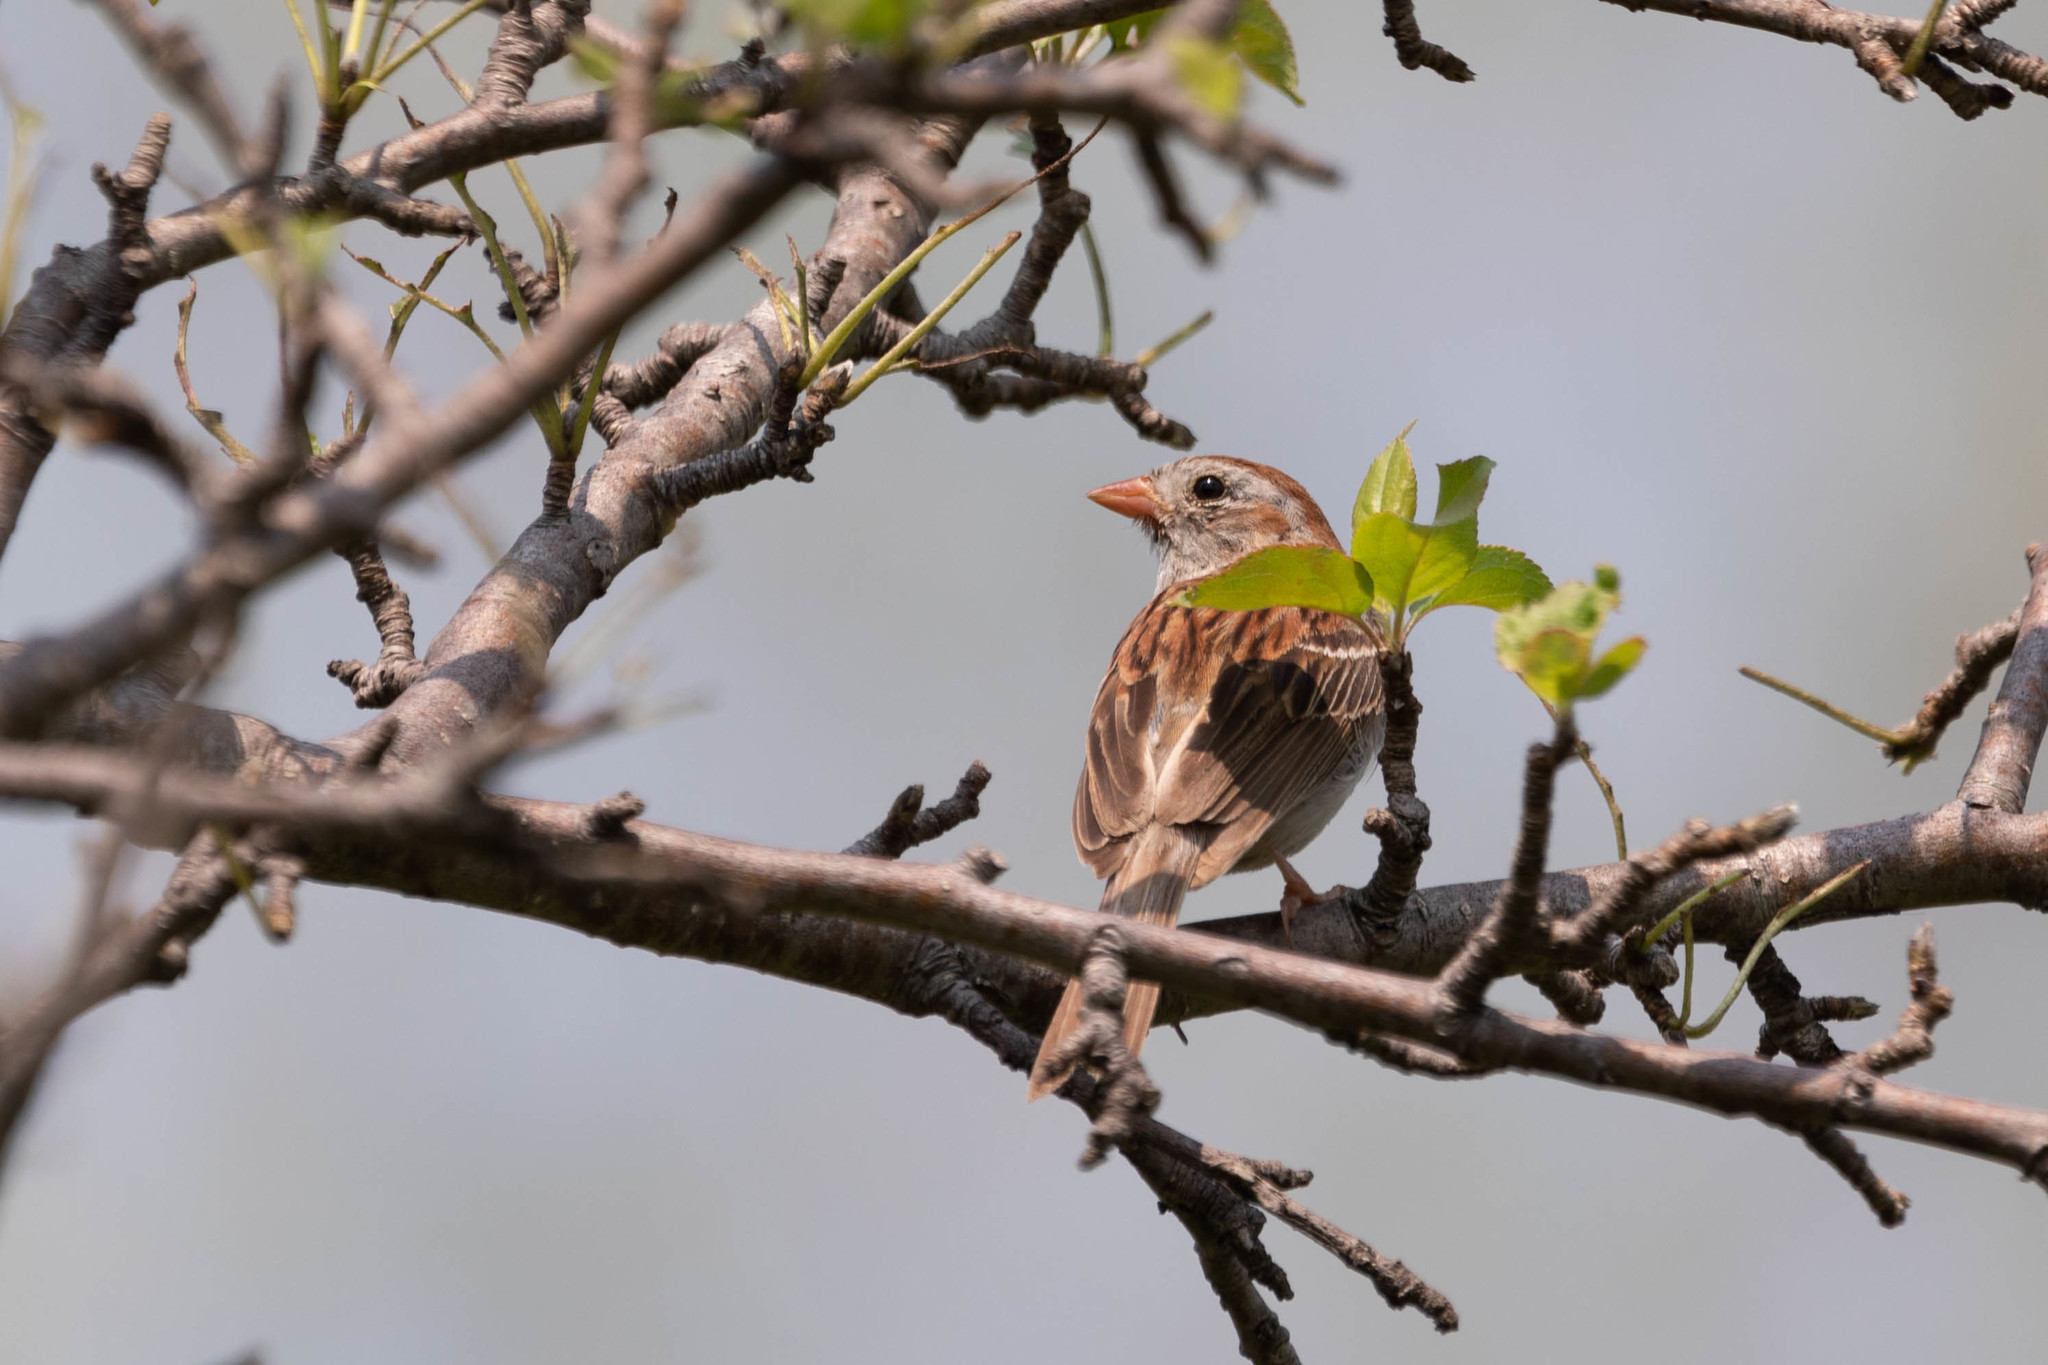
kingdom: Animalia
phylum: Chordata
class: Aves
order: Passeriformes
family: Passerellidae
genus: Spizella
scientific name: Spizella pusilla
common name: Field sparrow
